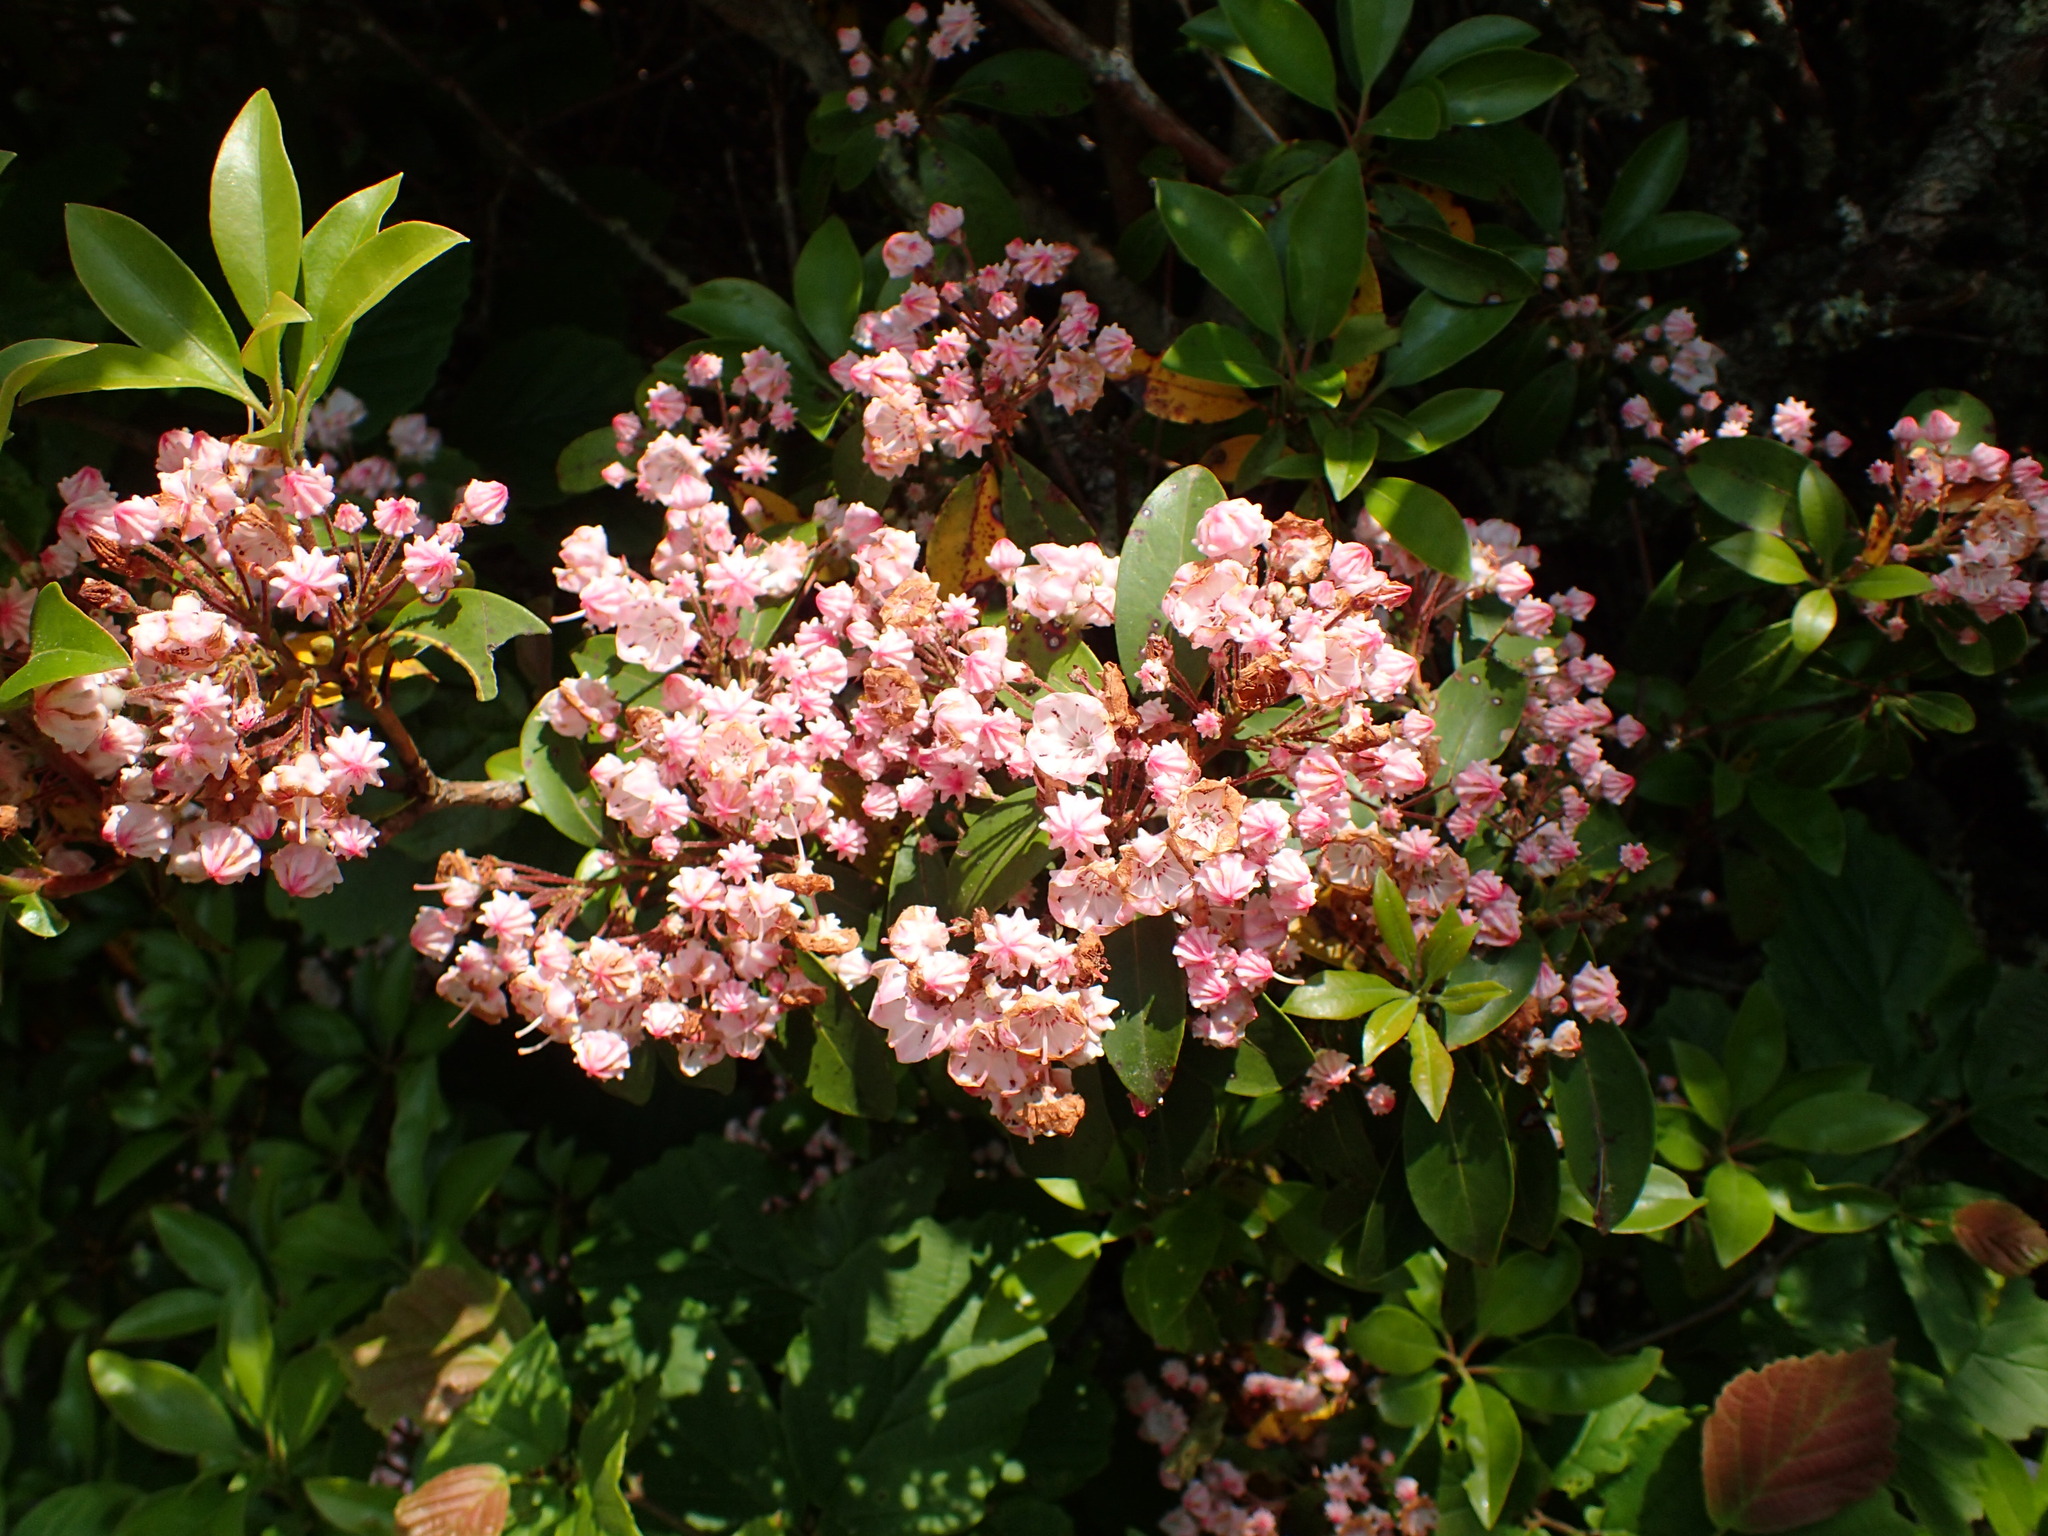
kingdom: Plantae
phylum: Tracheophyta
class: Magnoliopsida
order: Ericales
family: Ericaceae
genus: Kalmia
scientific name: Kalmia latifolia
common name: Mountain-laurel
